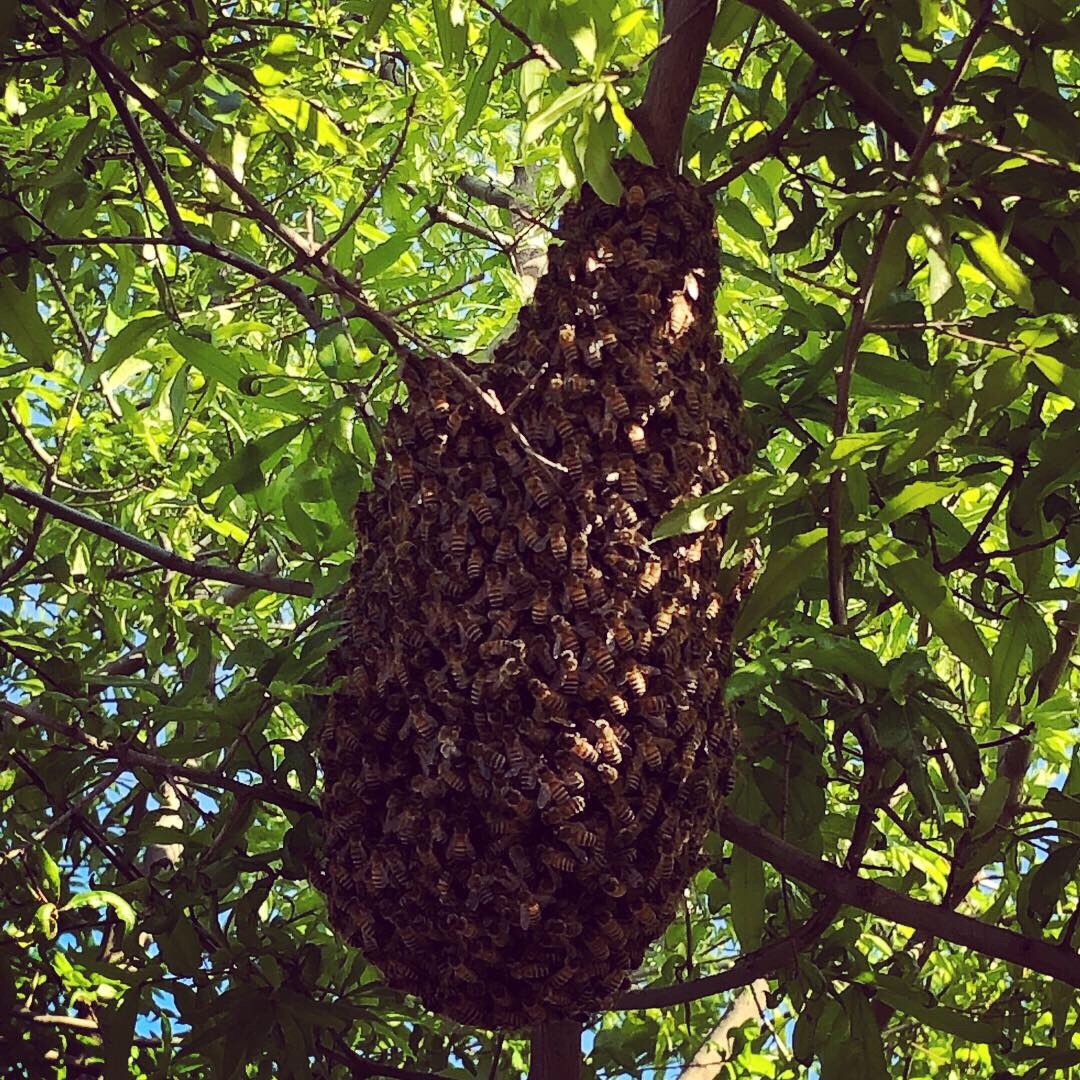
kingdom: Animalia
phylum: Arthropoda
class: Insecta
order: Hymenoptera
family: Apidae
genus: Apis
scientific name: Apis mellifera
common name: Honey bee
